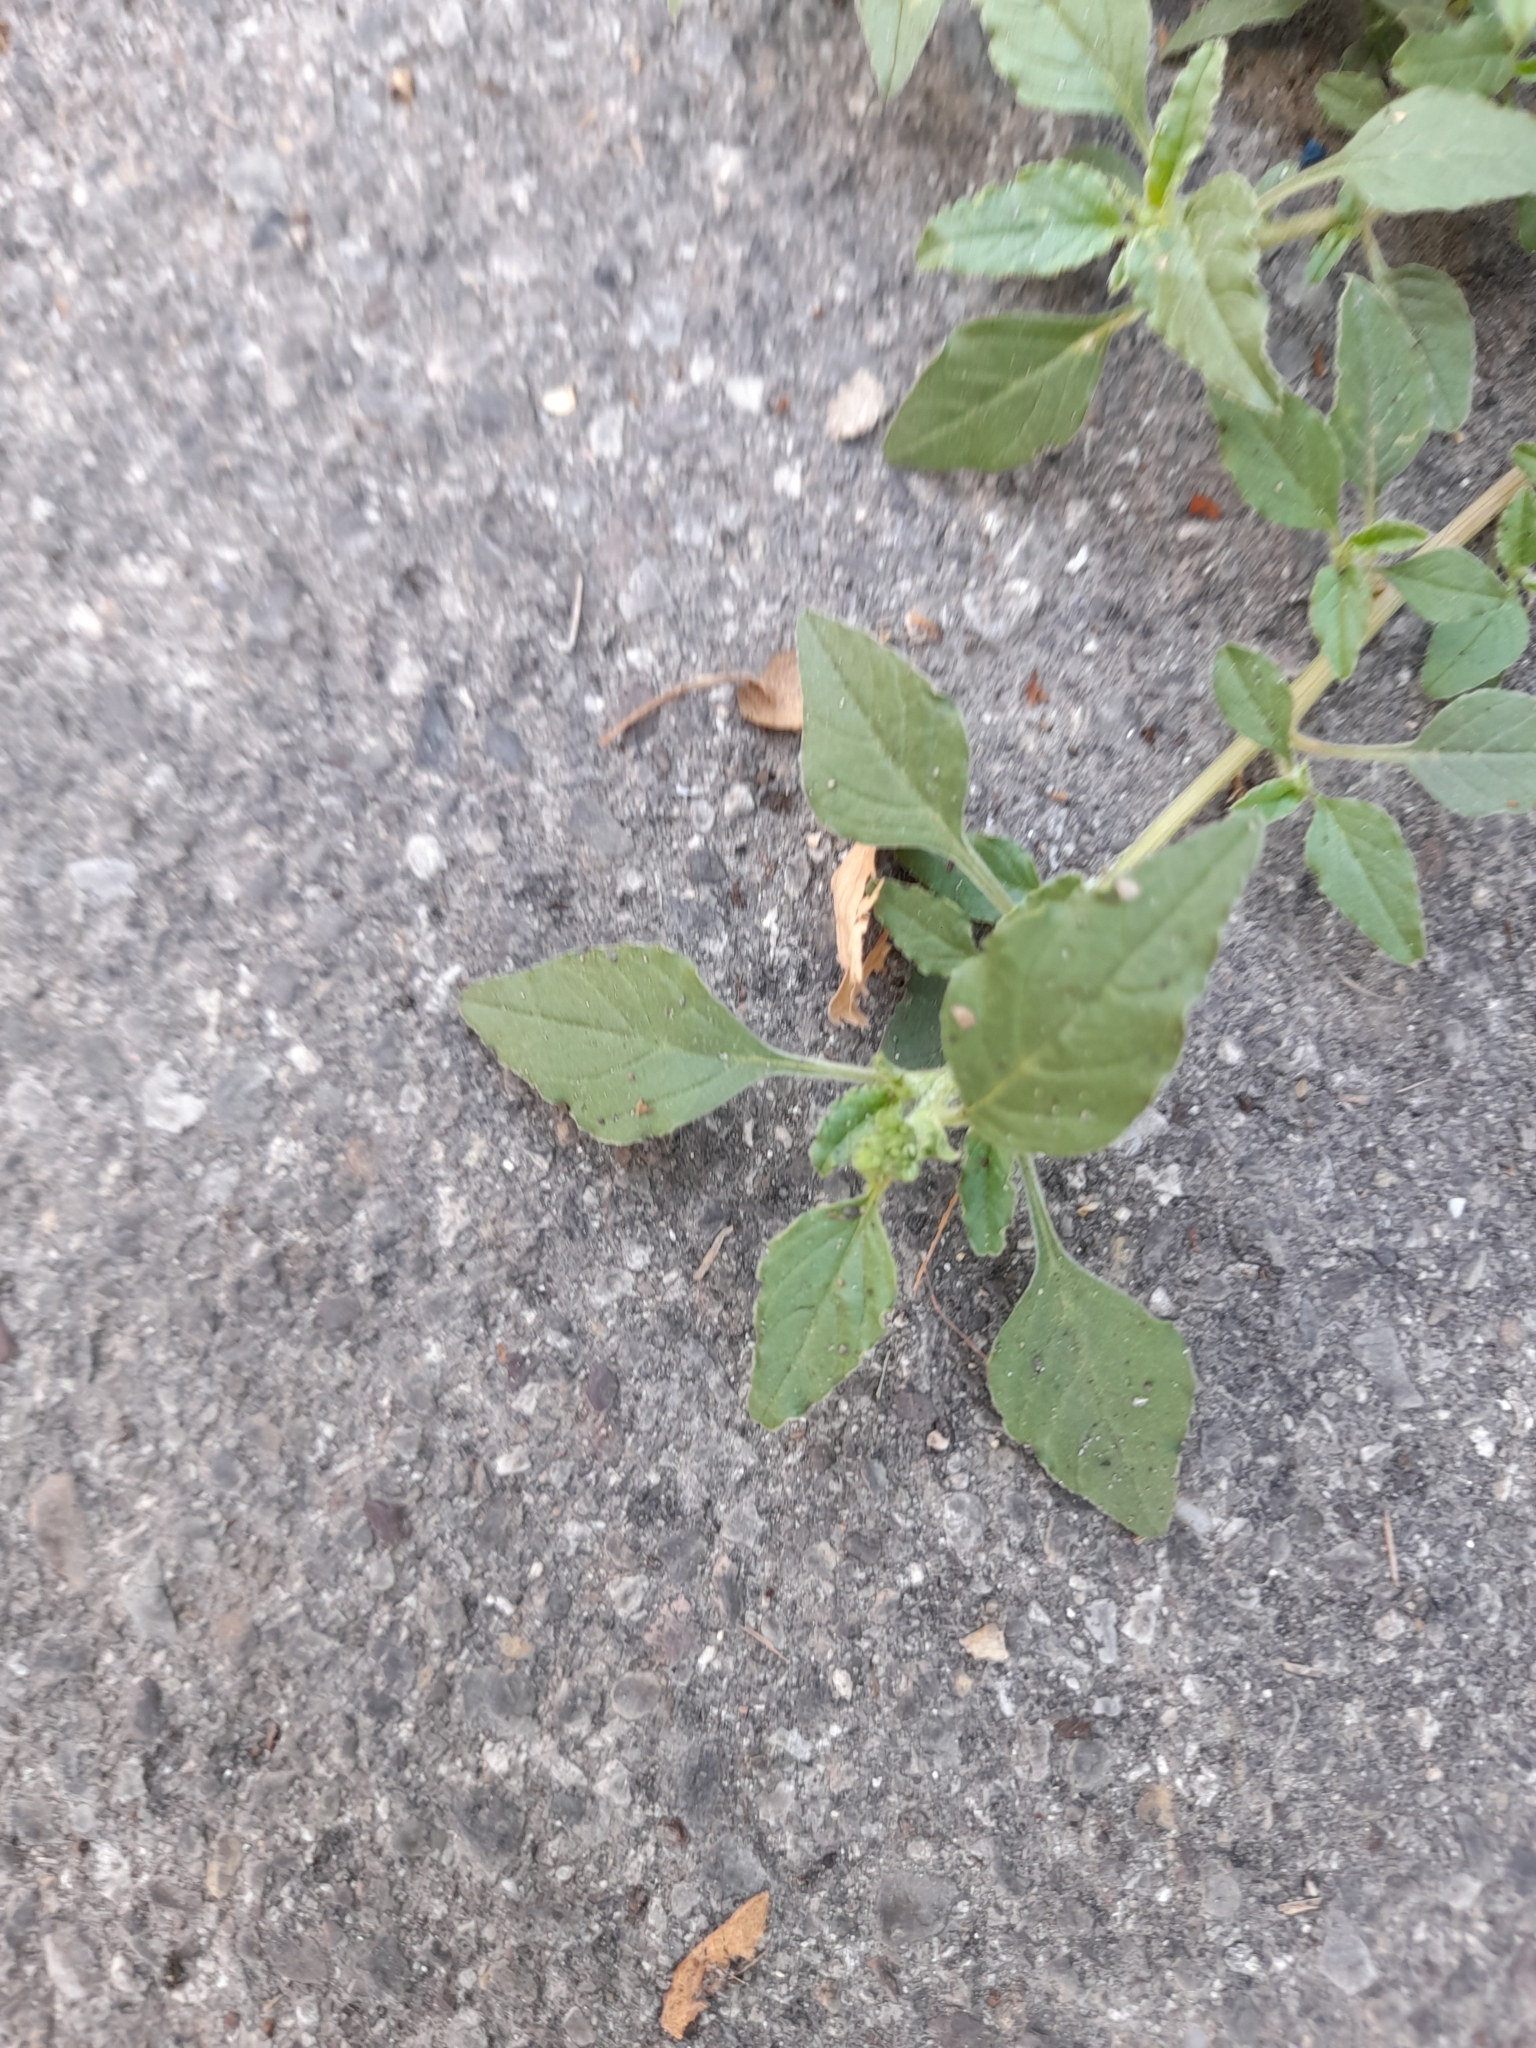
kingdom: Plantae
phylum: Tracheophyta
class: Magnoliopsida
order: Caryophyllales
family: Amaranthaceae
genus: Amaranthus
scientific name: Amaranthus deflexus
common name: Perennial pigweed
